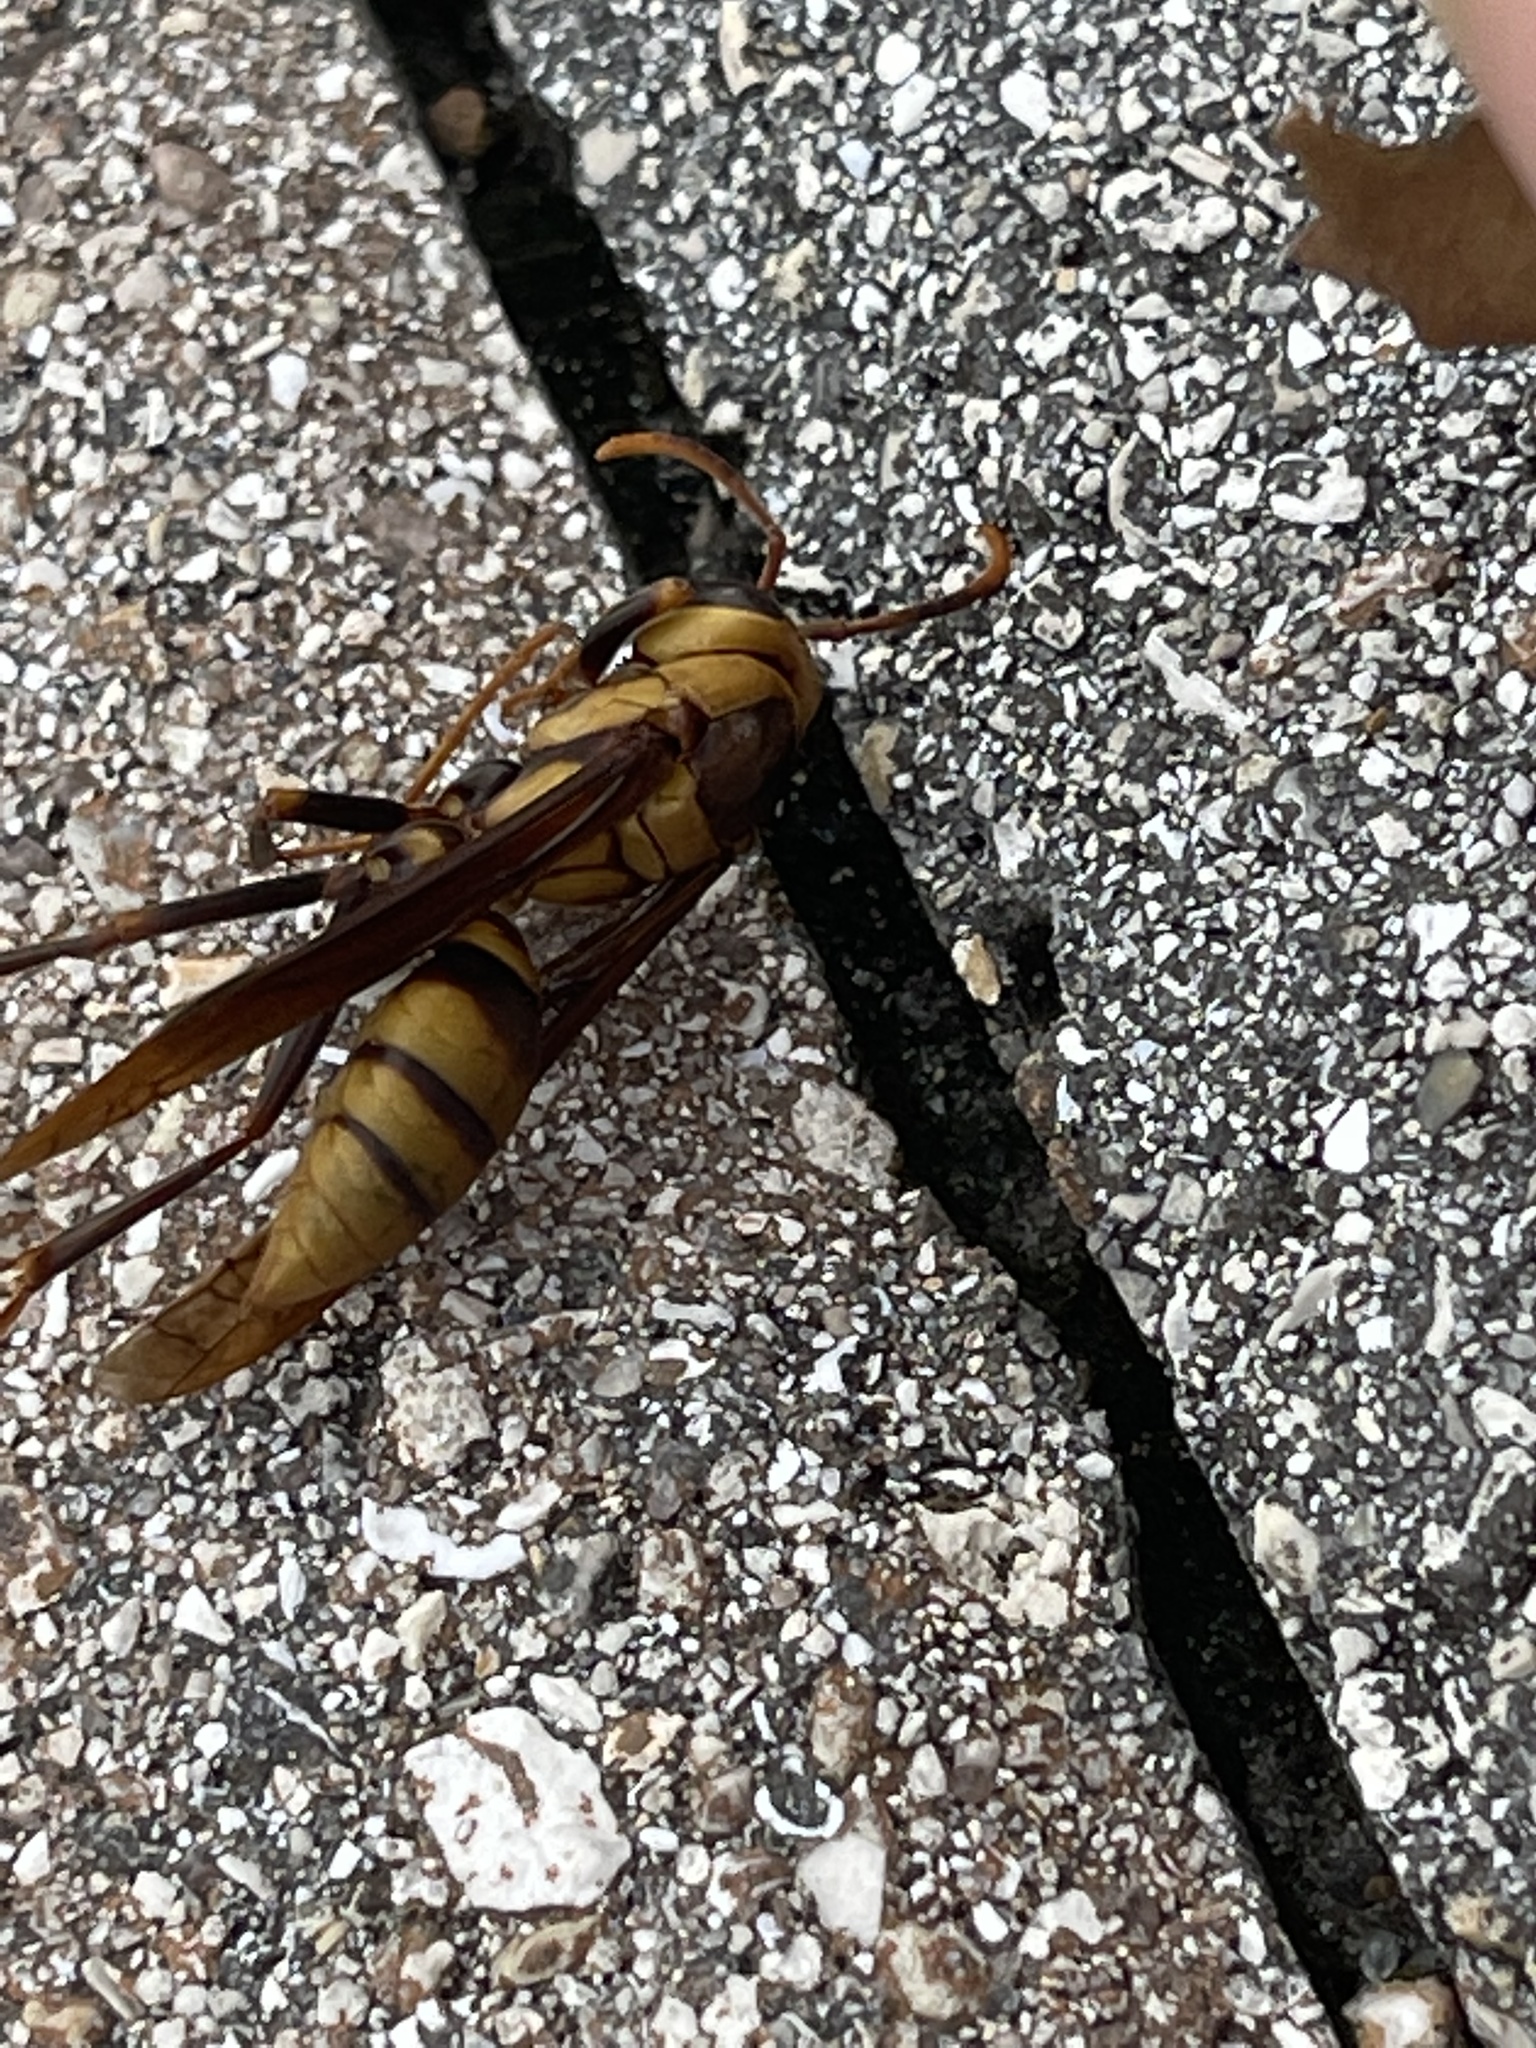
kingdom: Animalia
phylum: Arthropoda
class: Insecta
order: Hymenoptera
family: Eumenidae
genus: Polistes
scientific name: Polistes major
